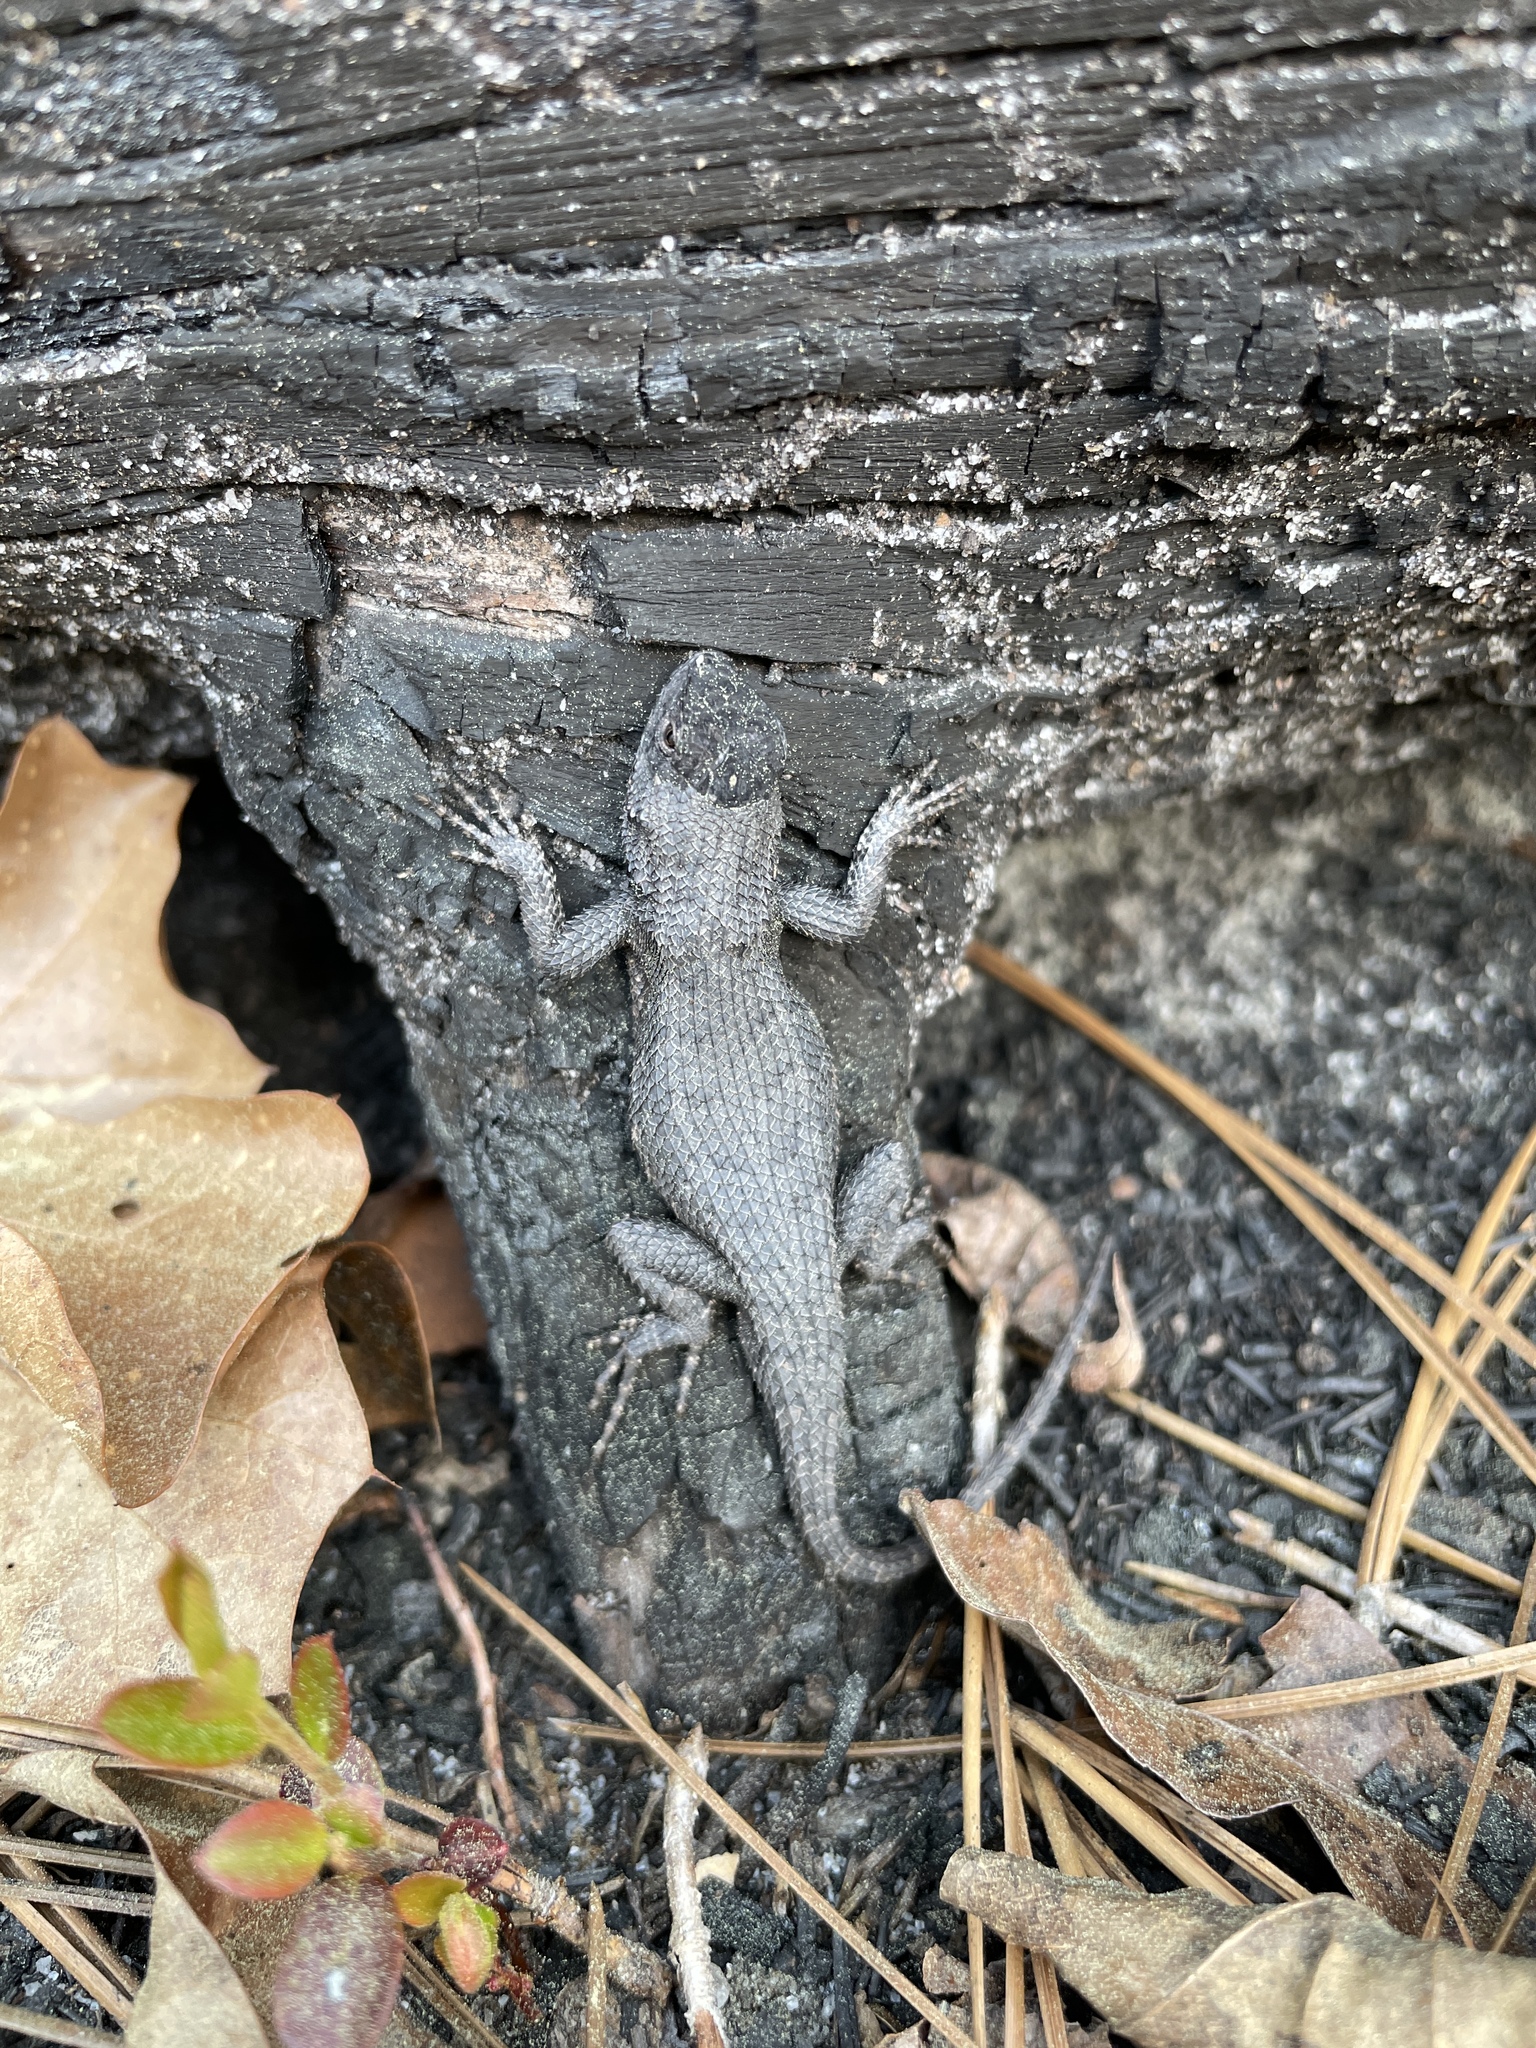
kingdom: Animalia
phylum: Chordata
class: Squamata
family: Phrynosomatidae
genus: Sceloporus
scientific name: Sceloporus undulatus
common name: Eastern fence lizard
